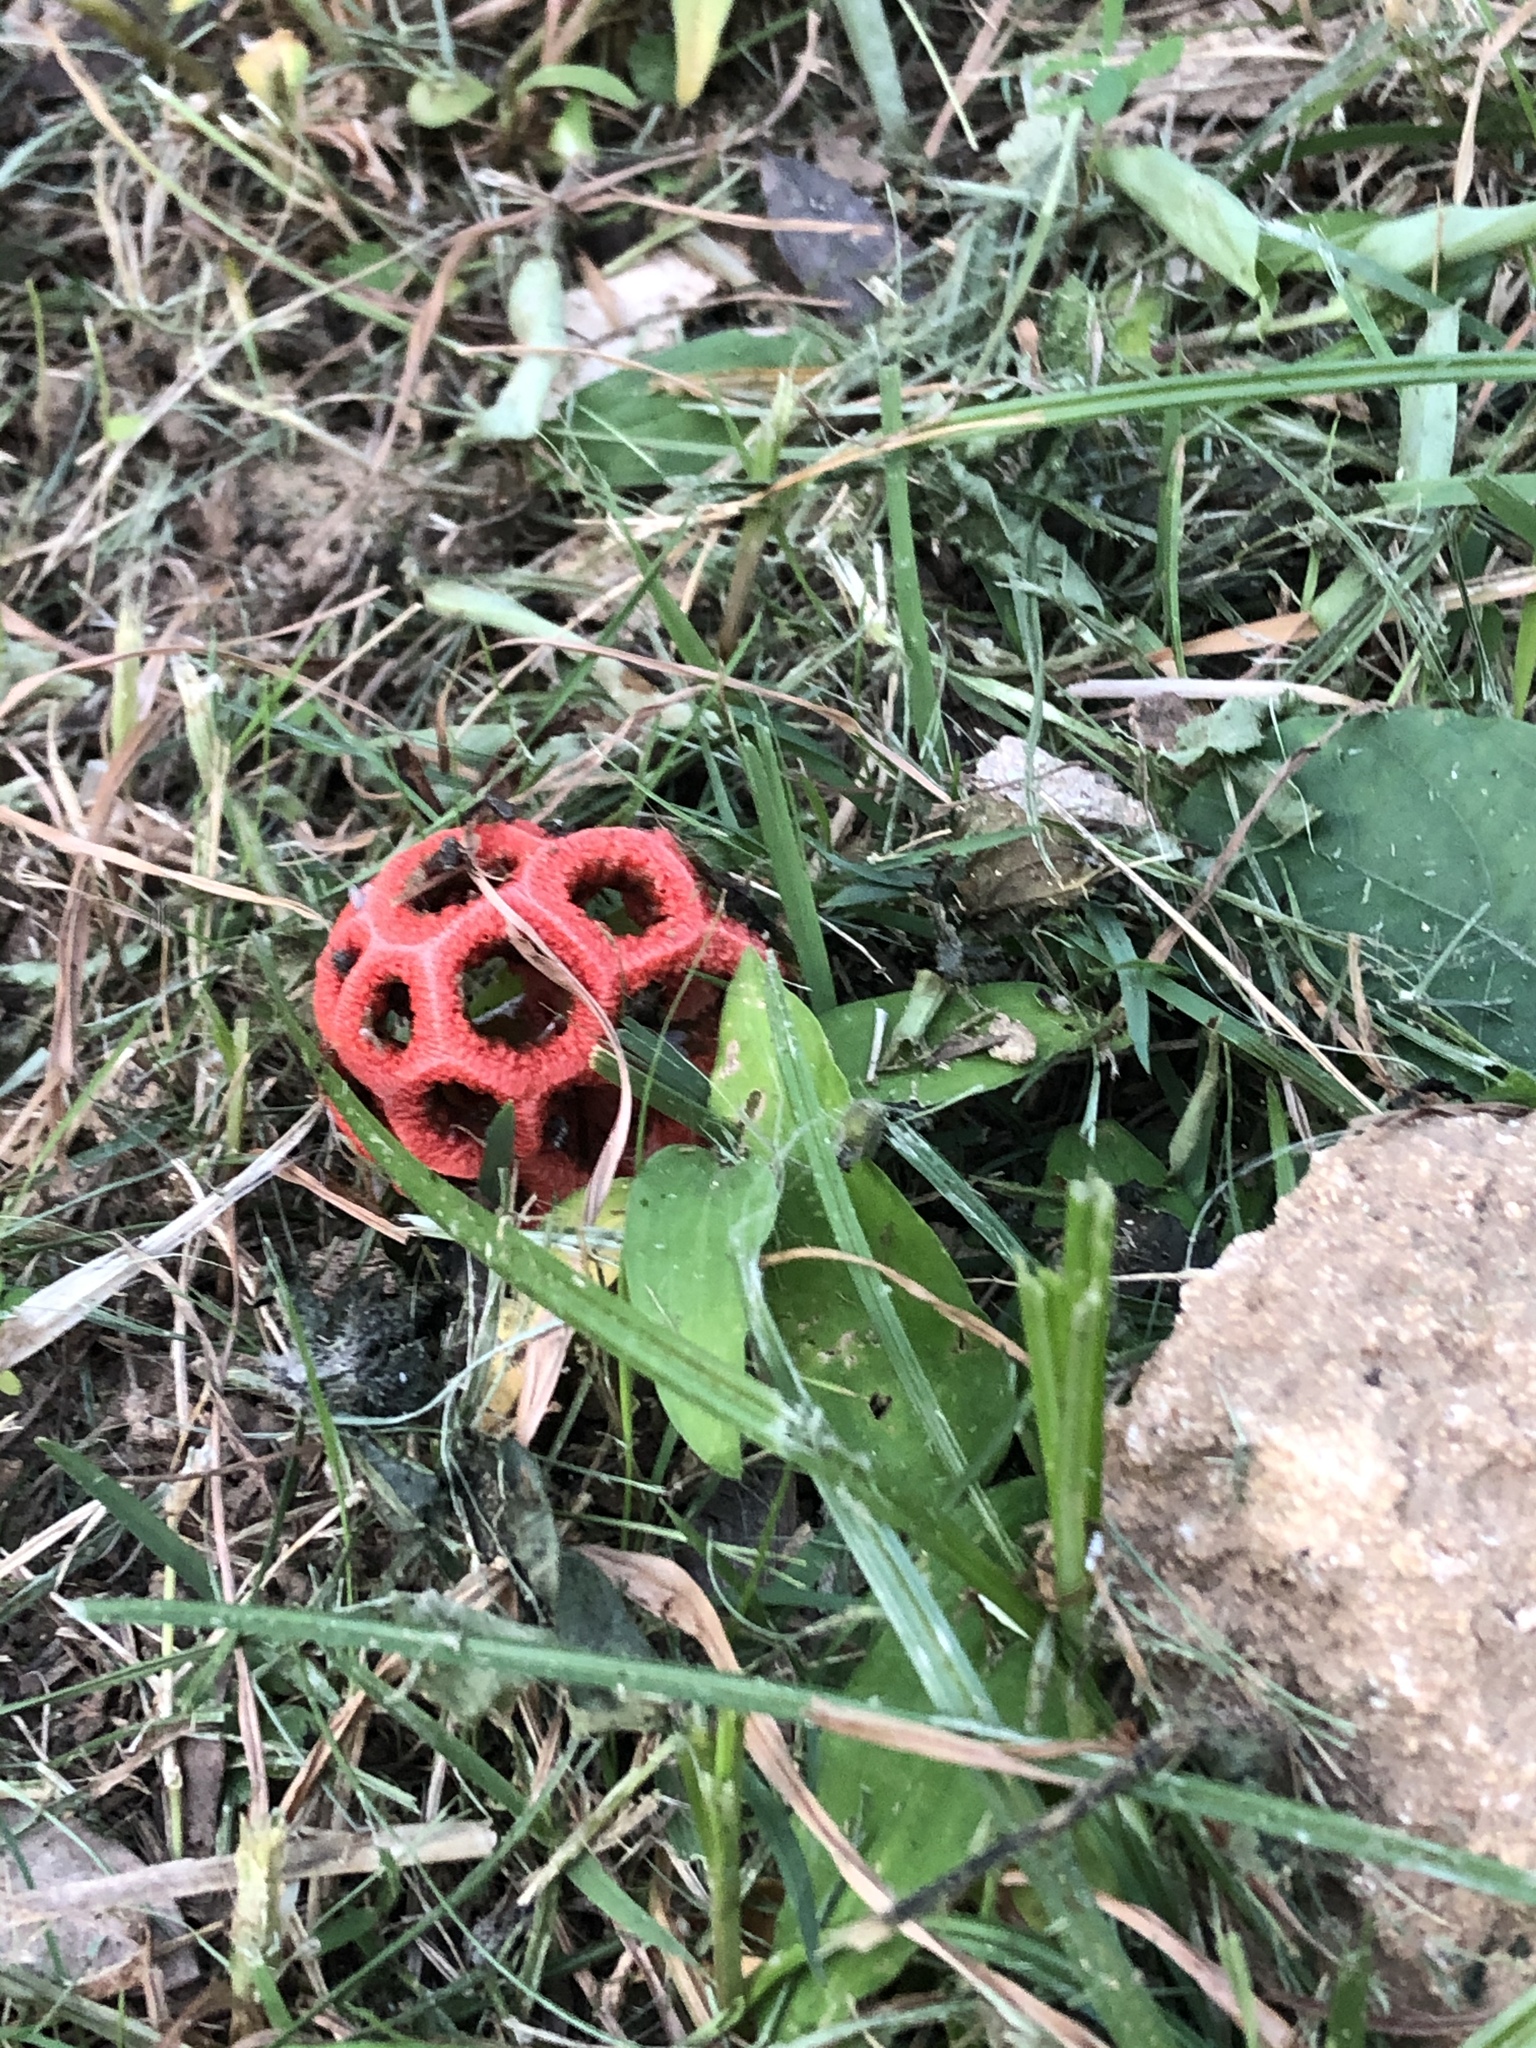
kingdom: Fungi
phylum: Basidiomycota
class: Agaricomycetes
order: Phallales
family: Phallaceae
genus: Clathrus
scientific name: Clathrus crispatus
